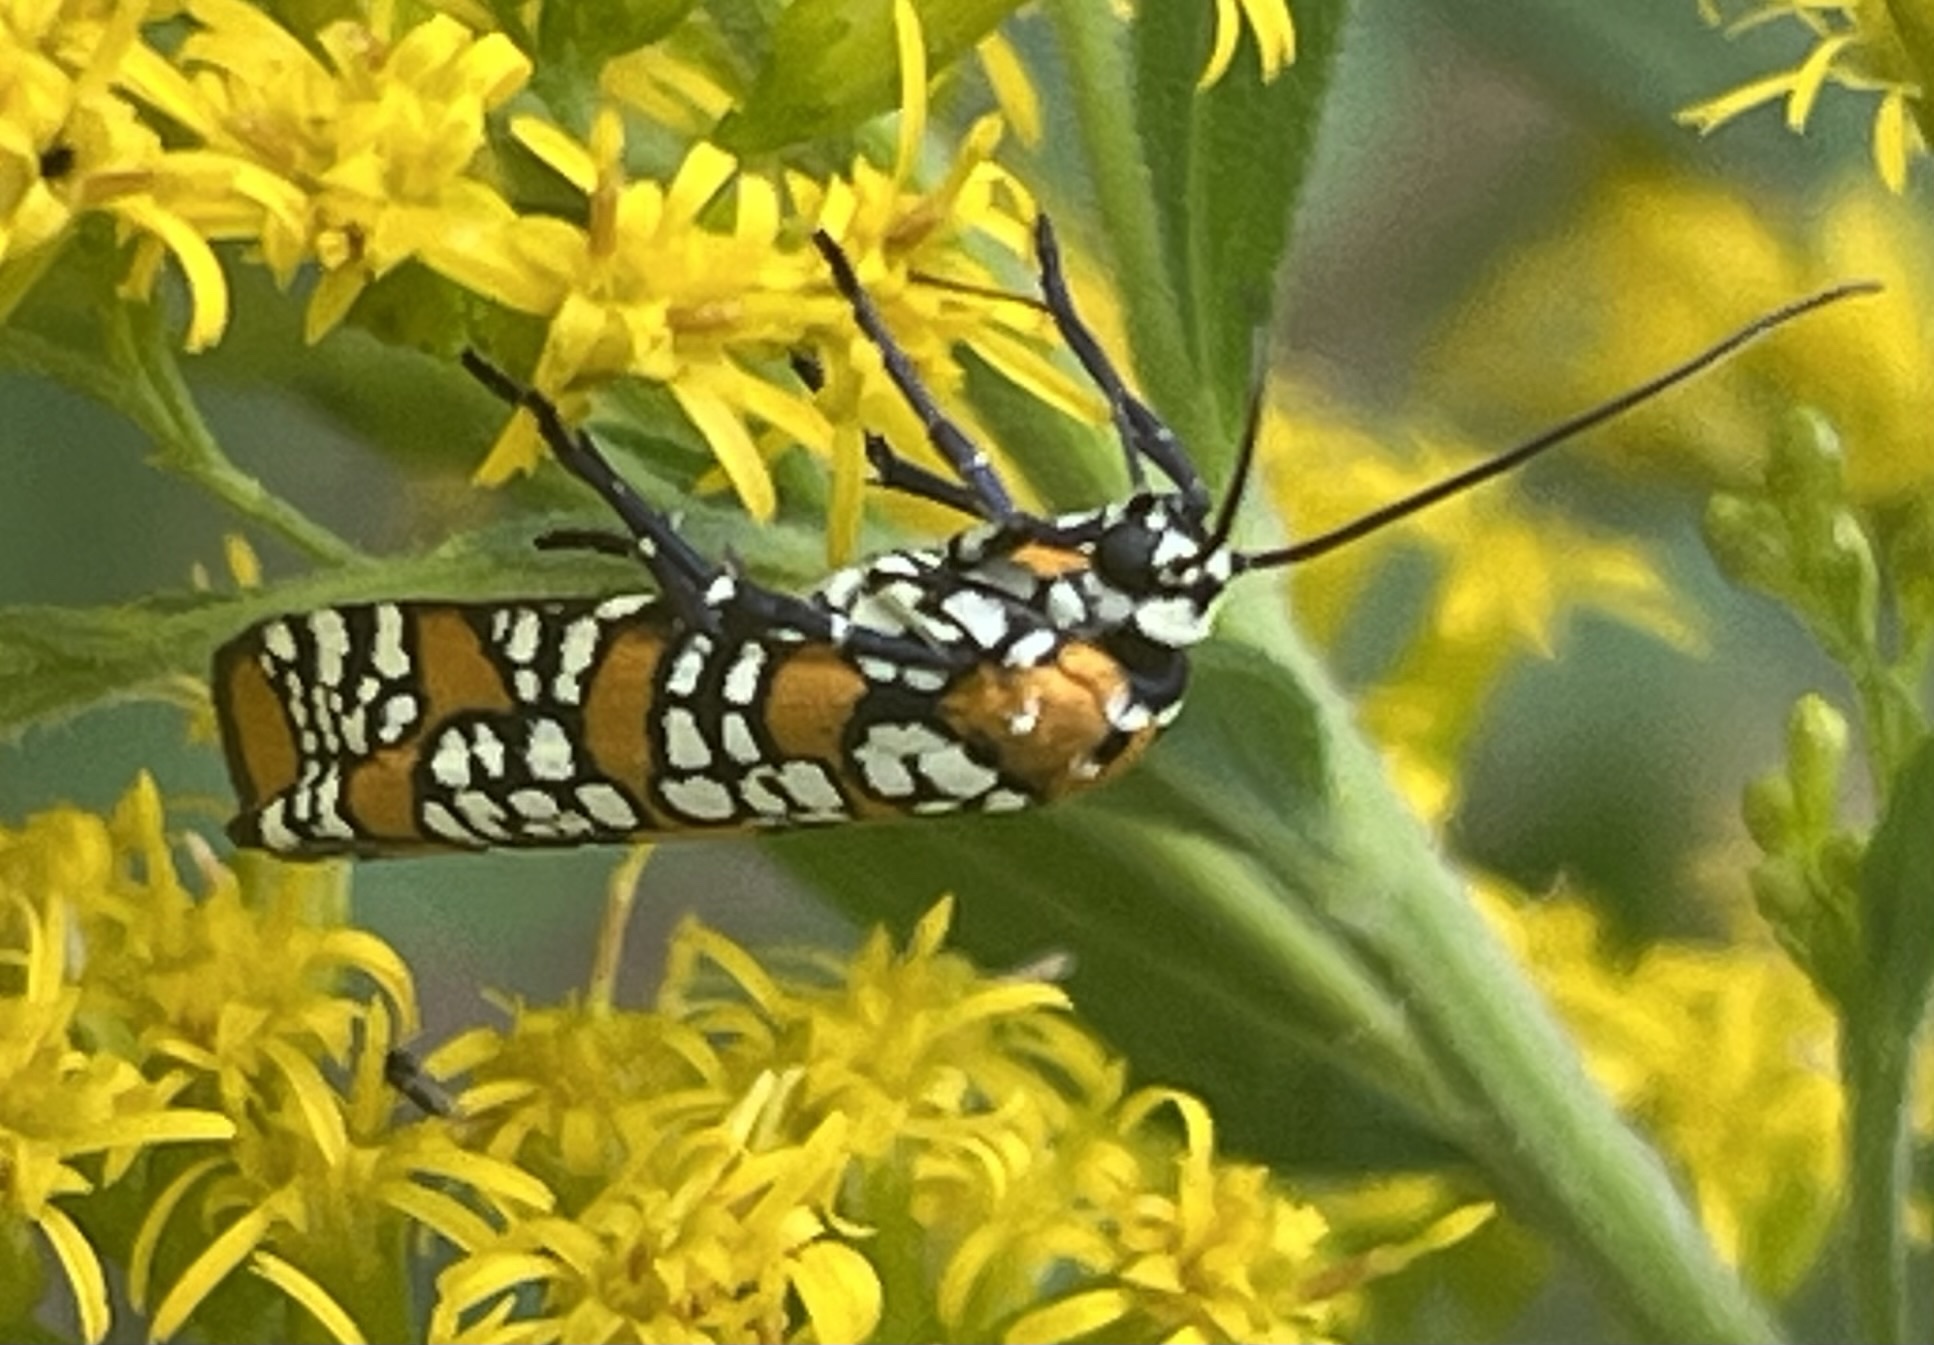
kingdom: Animalia
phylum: Arthropoda
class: Insecta
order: Lepidoptera
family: Attevidae
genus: Atteva
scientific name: Atteva punctella
